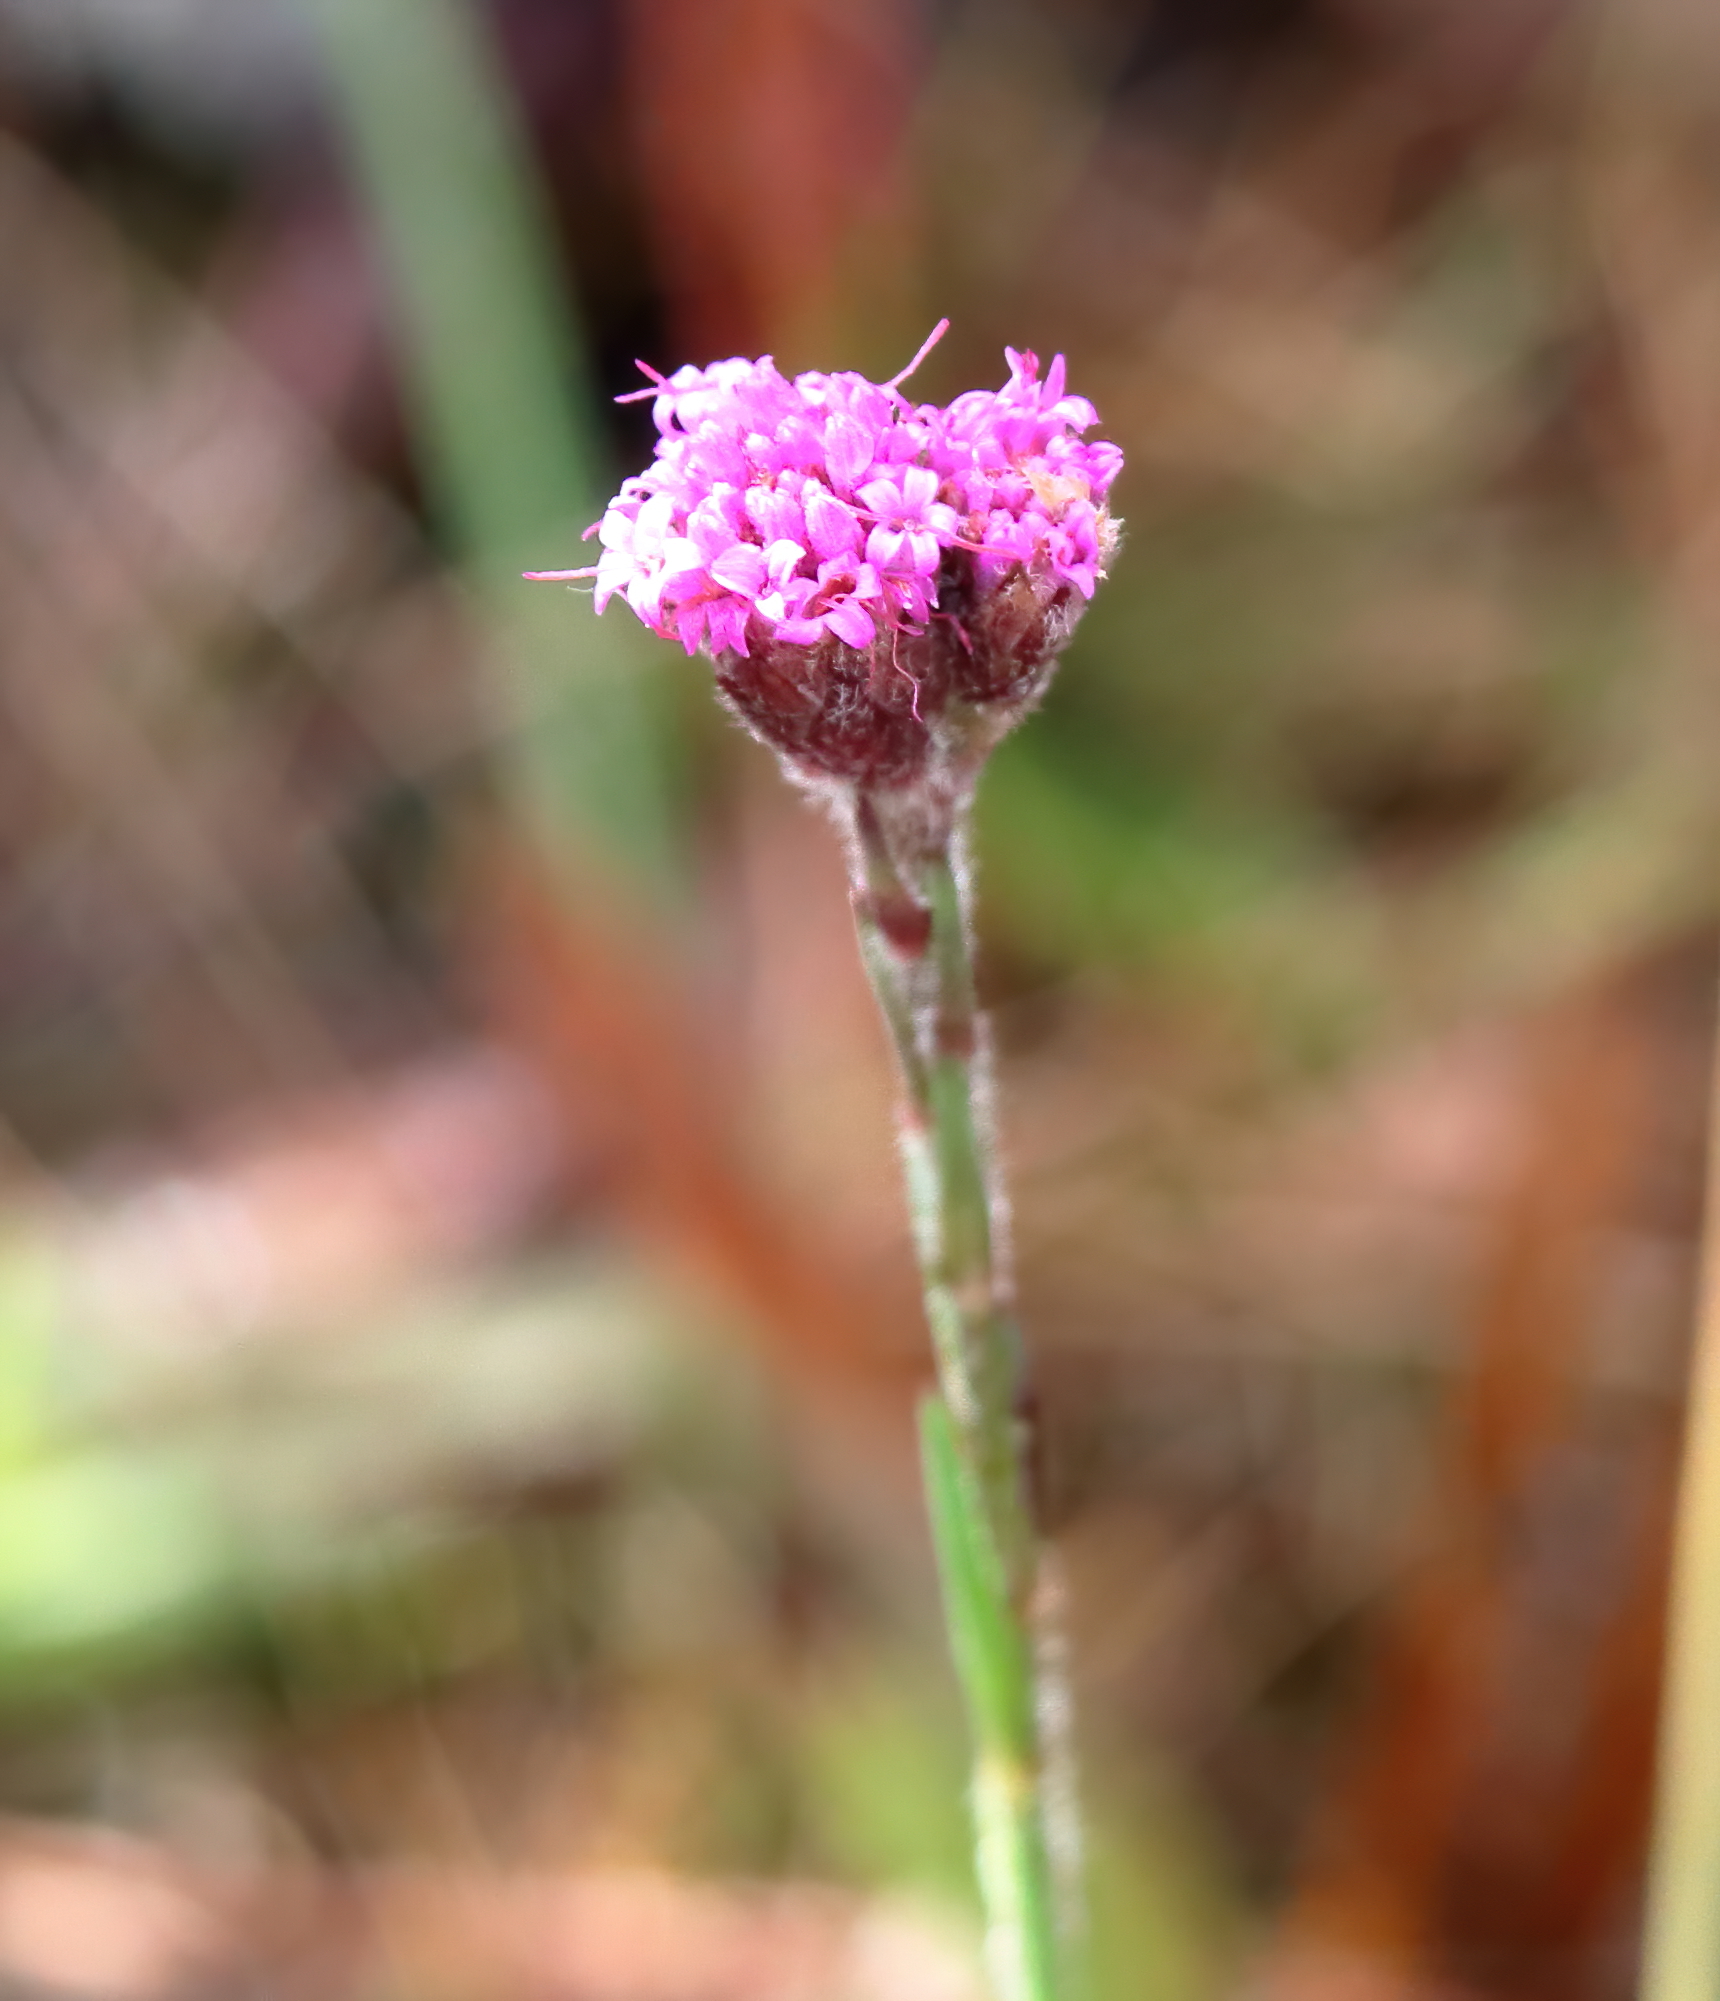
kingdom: Plantae
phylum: Tracheophyta
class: Magnoliopsida
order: Asterales
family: Asteraceae
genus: Carphephorus
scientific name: Carphephorus pseudoliatris
